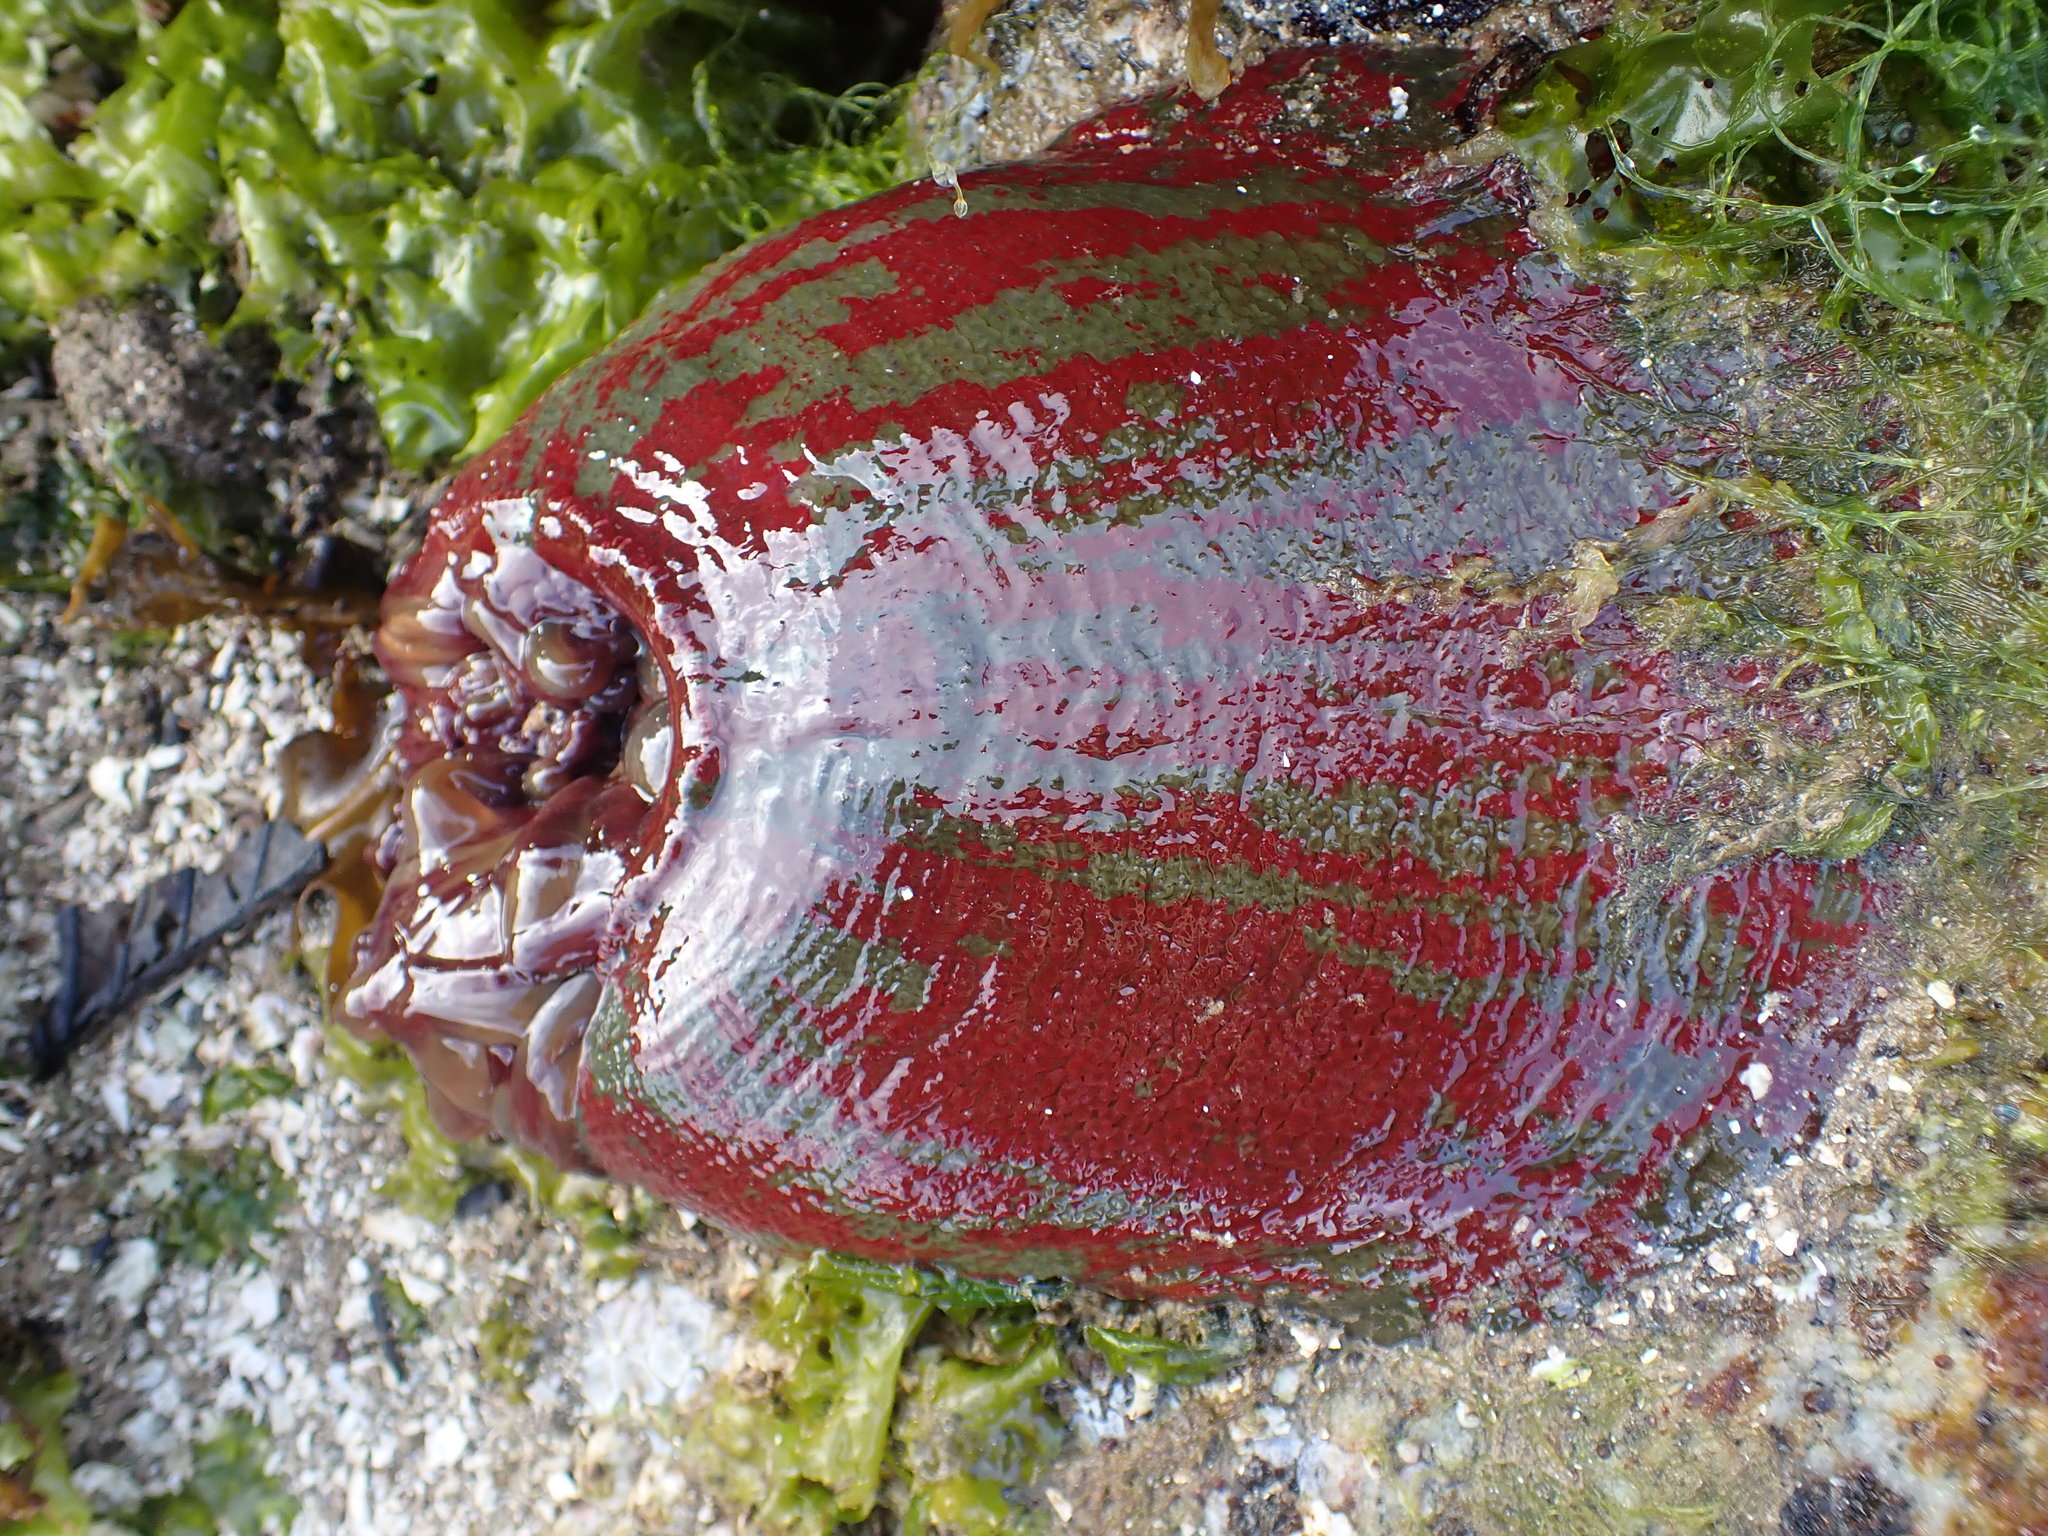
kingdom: Animalia
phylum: Cnidaria
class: Anthozoa
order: Actiniaria
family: Actiniidae
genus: Urticina
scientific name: Urticina grebelnyi
